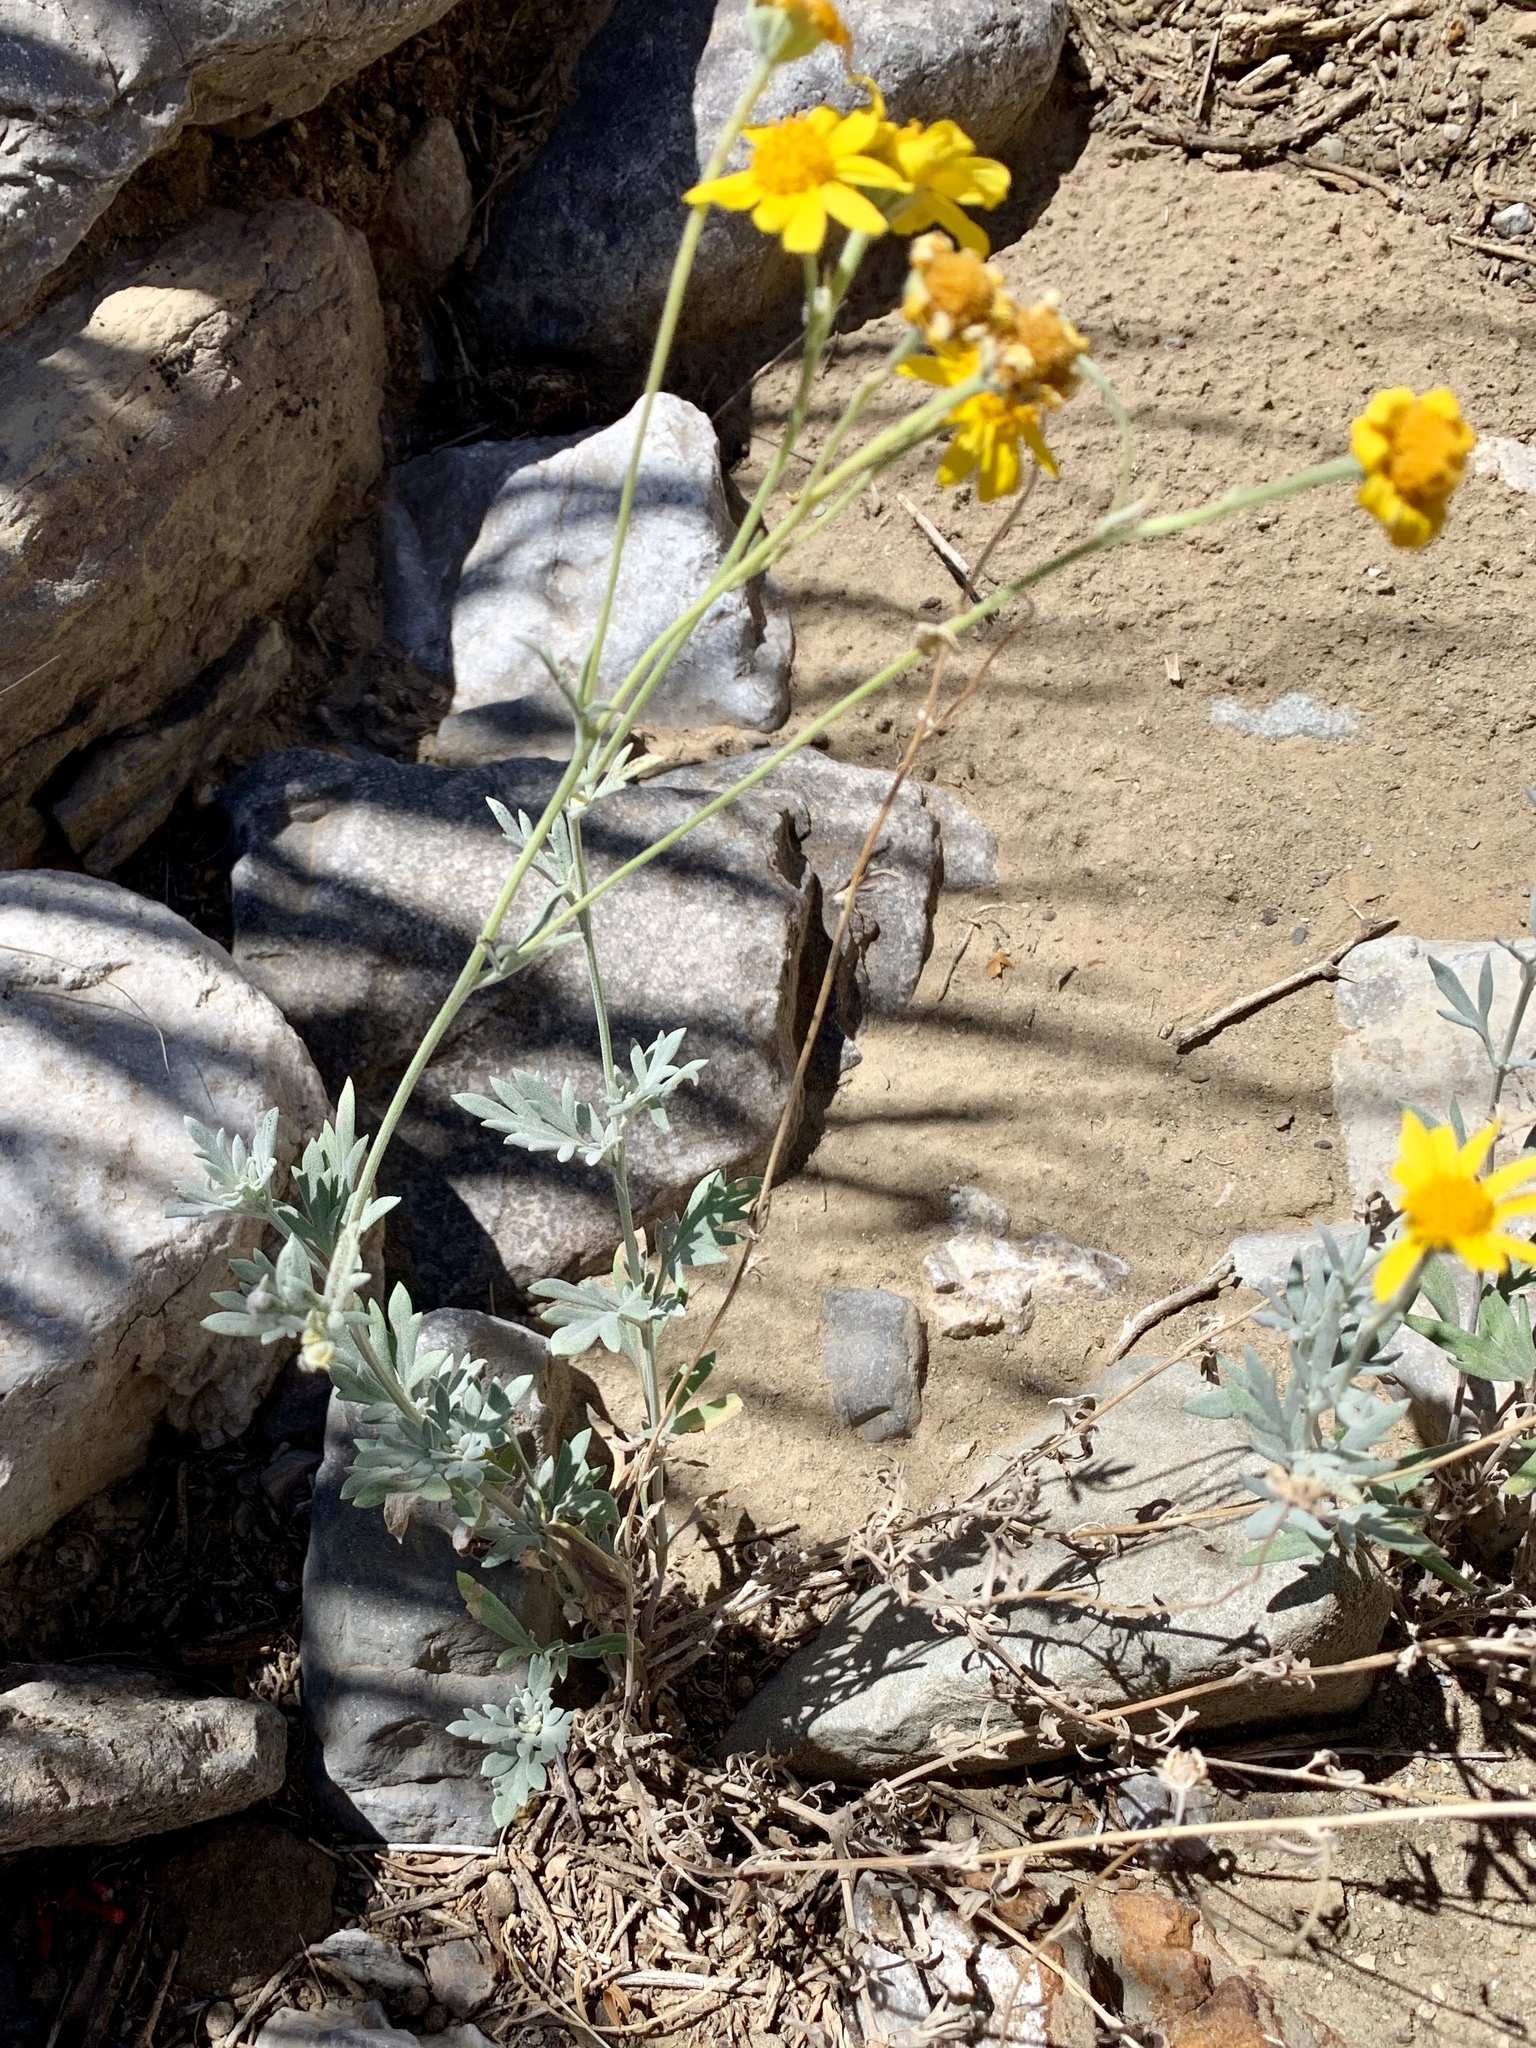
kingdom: Plantae
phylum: Tracheophyta
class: Magnoliopsida
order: Asterales
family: Asteraceae
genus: Picradeniopsis
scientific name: Picradeniopsis absinthifolia
